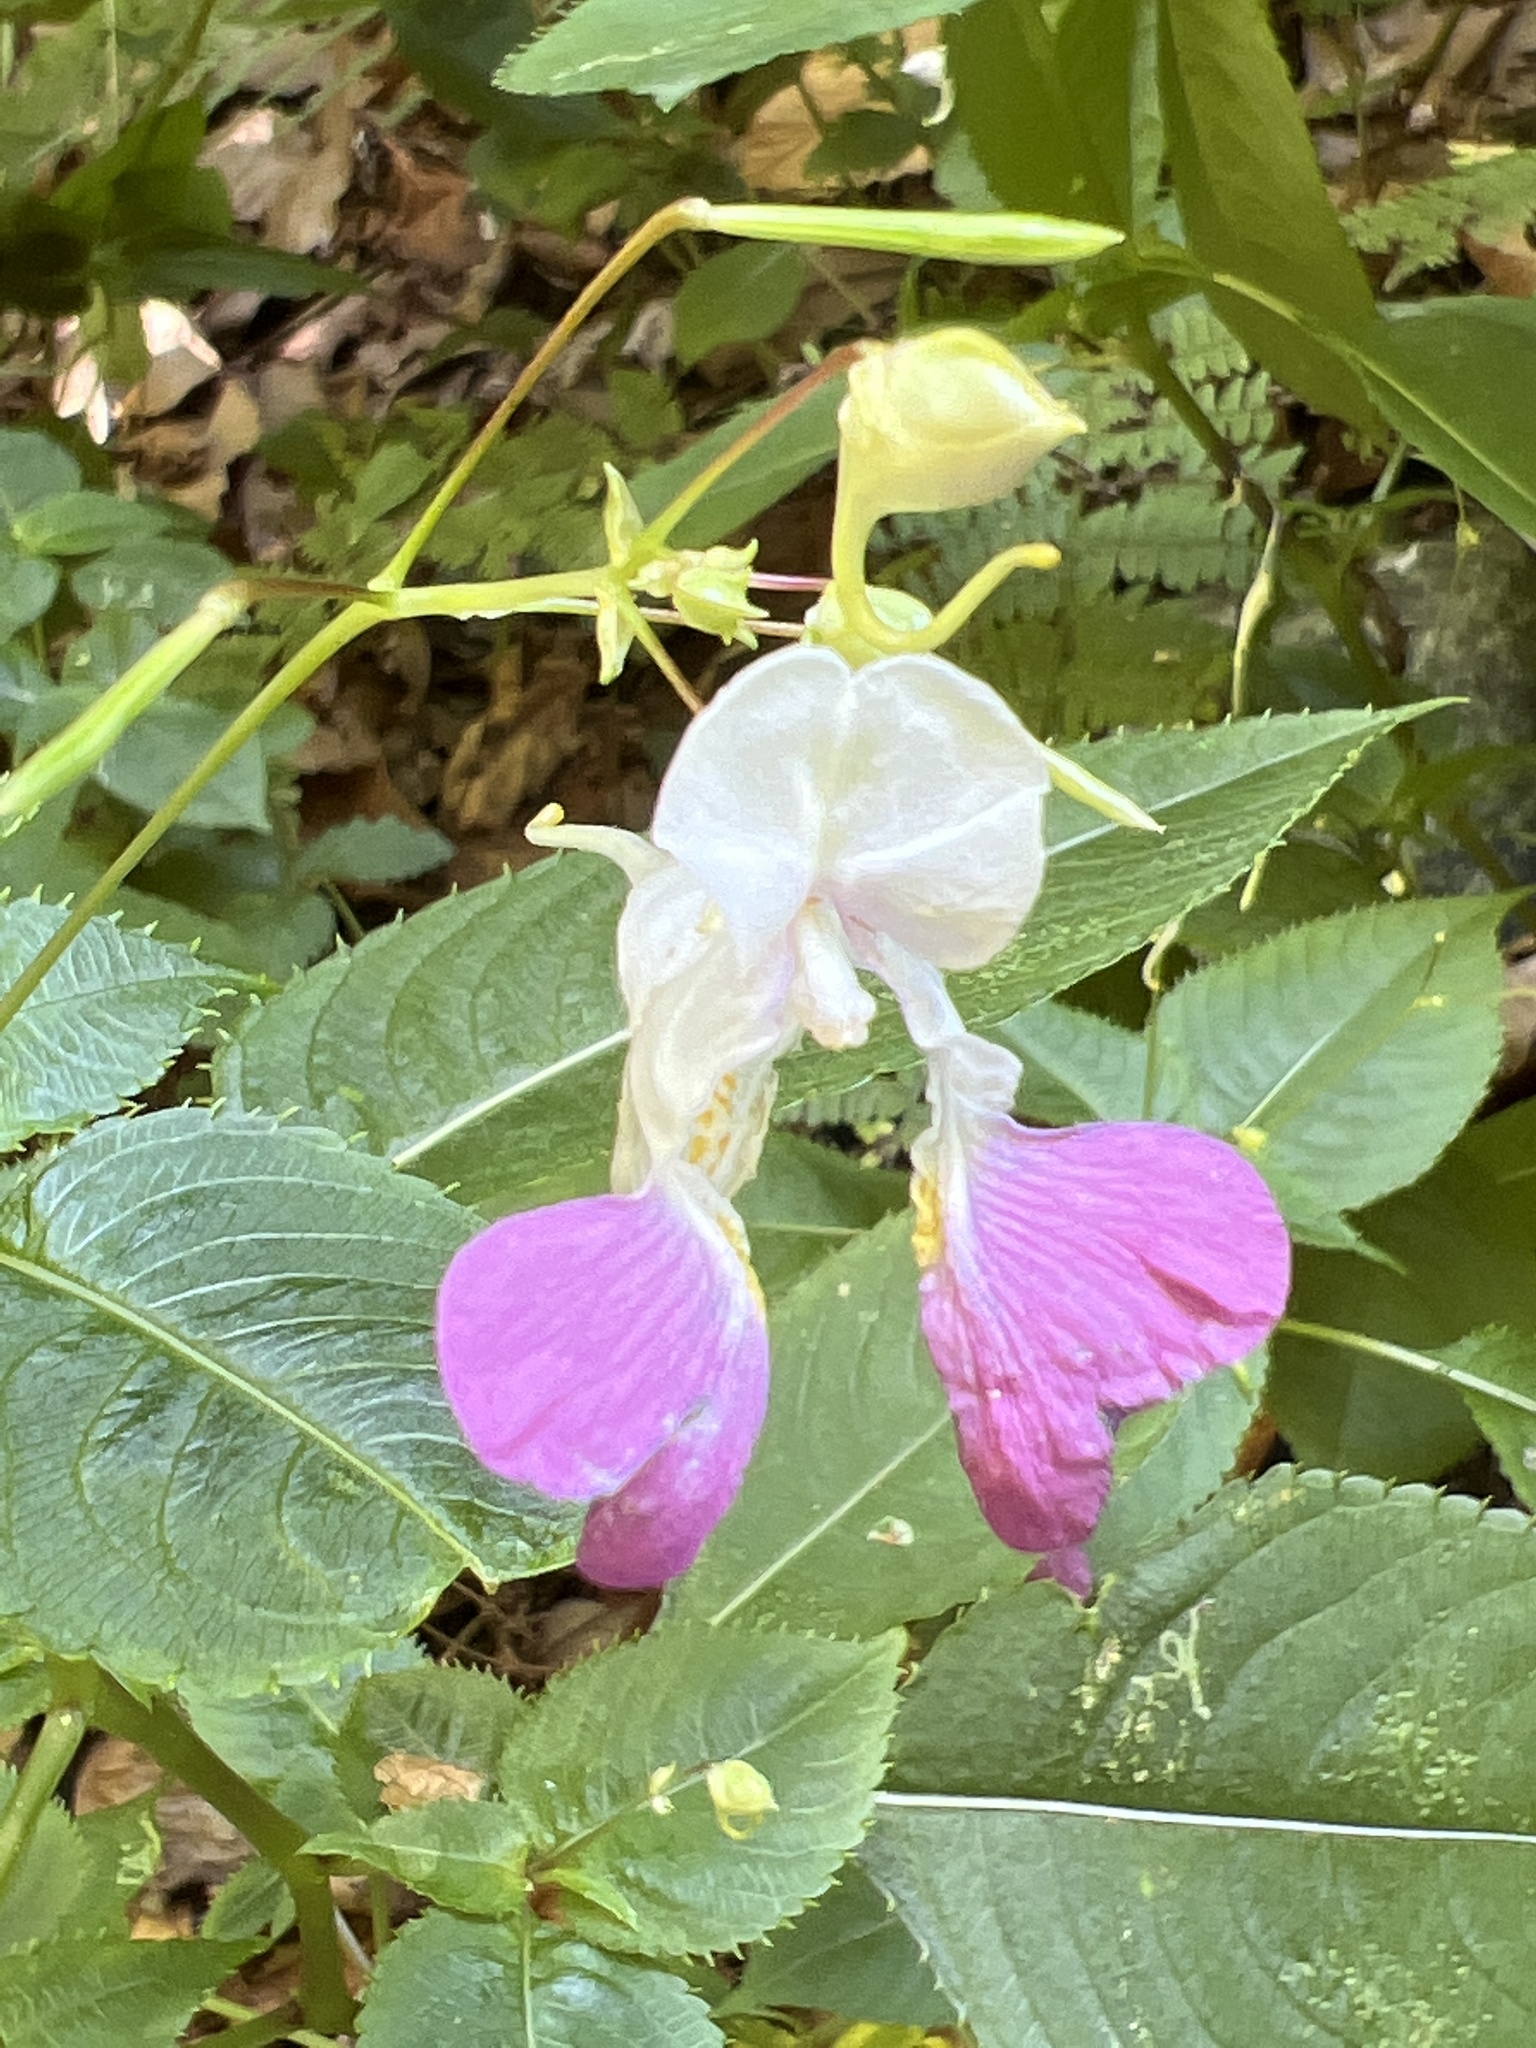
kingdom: Plantae
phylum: Tracheophyta
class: Magnoliopsida
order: Ericales
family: Balsaminaceae
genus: Impatiens
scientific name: Impatiens balfourii
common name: Balfour's touch-me-not
